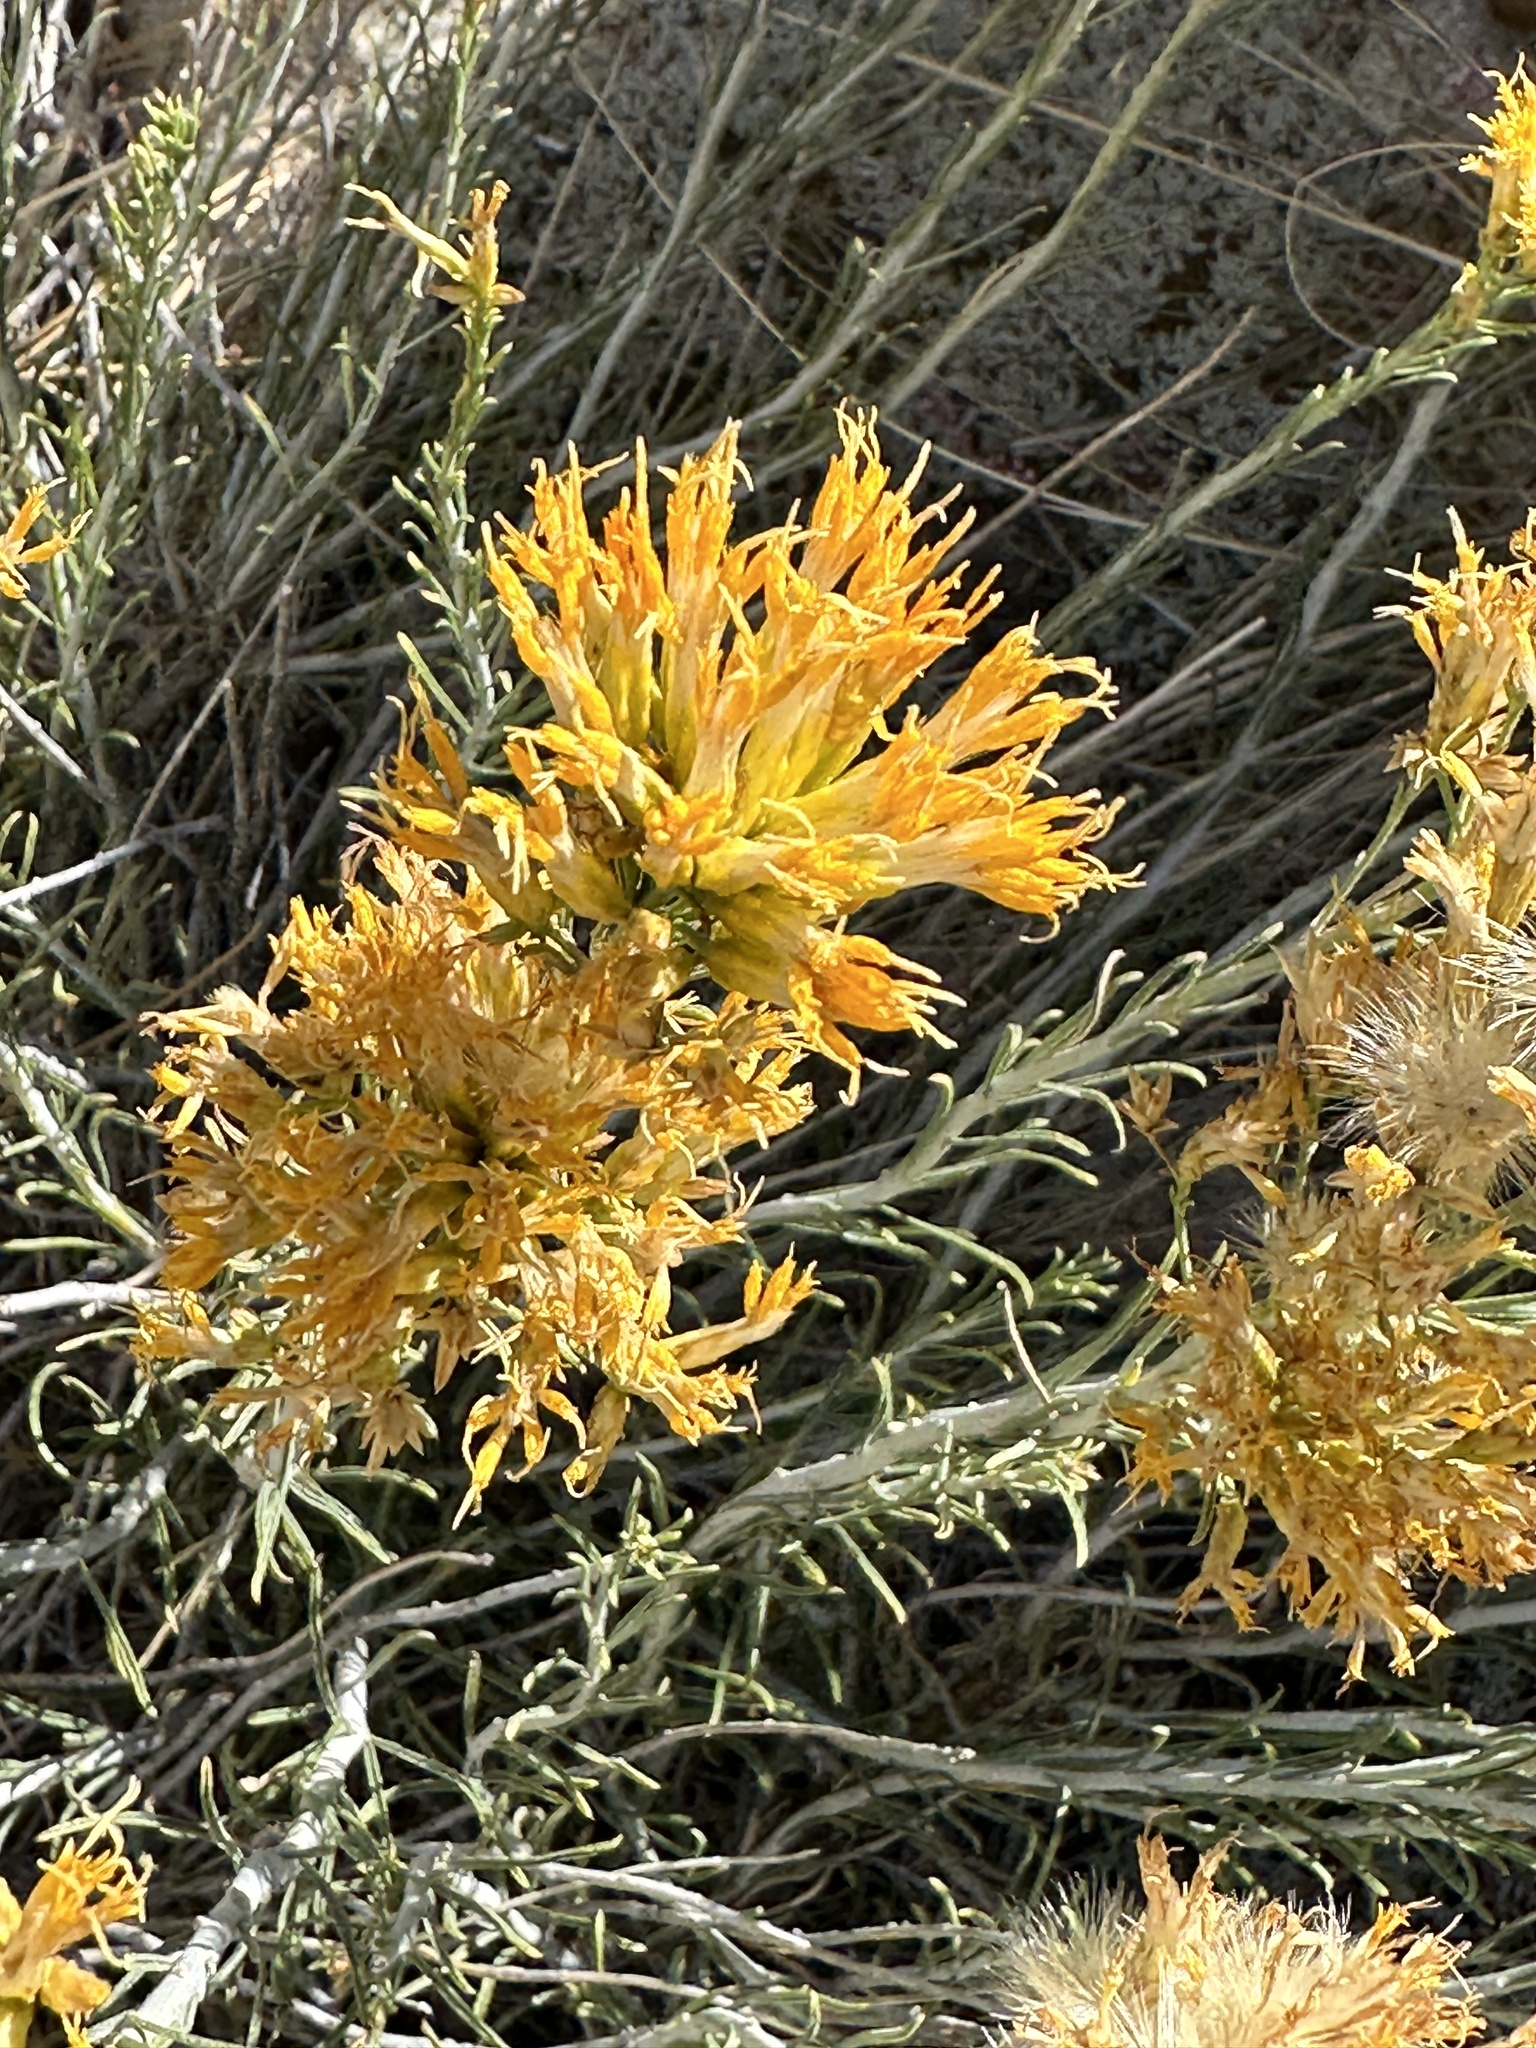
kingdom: Plantae
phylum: Tracheophyta
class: Magnoliopsida
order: Asterales
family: Asteraceae
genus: Ericameria
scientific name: Ericameria nauseosa
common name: Rubber rabbitbrush
